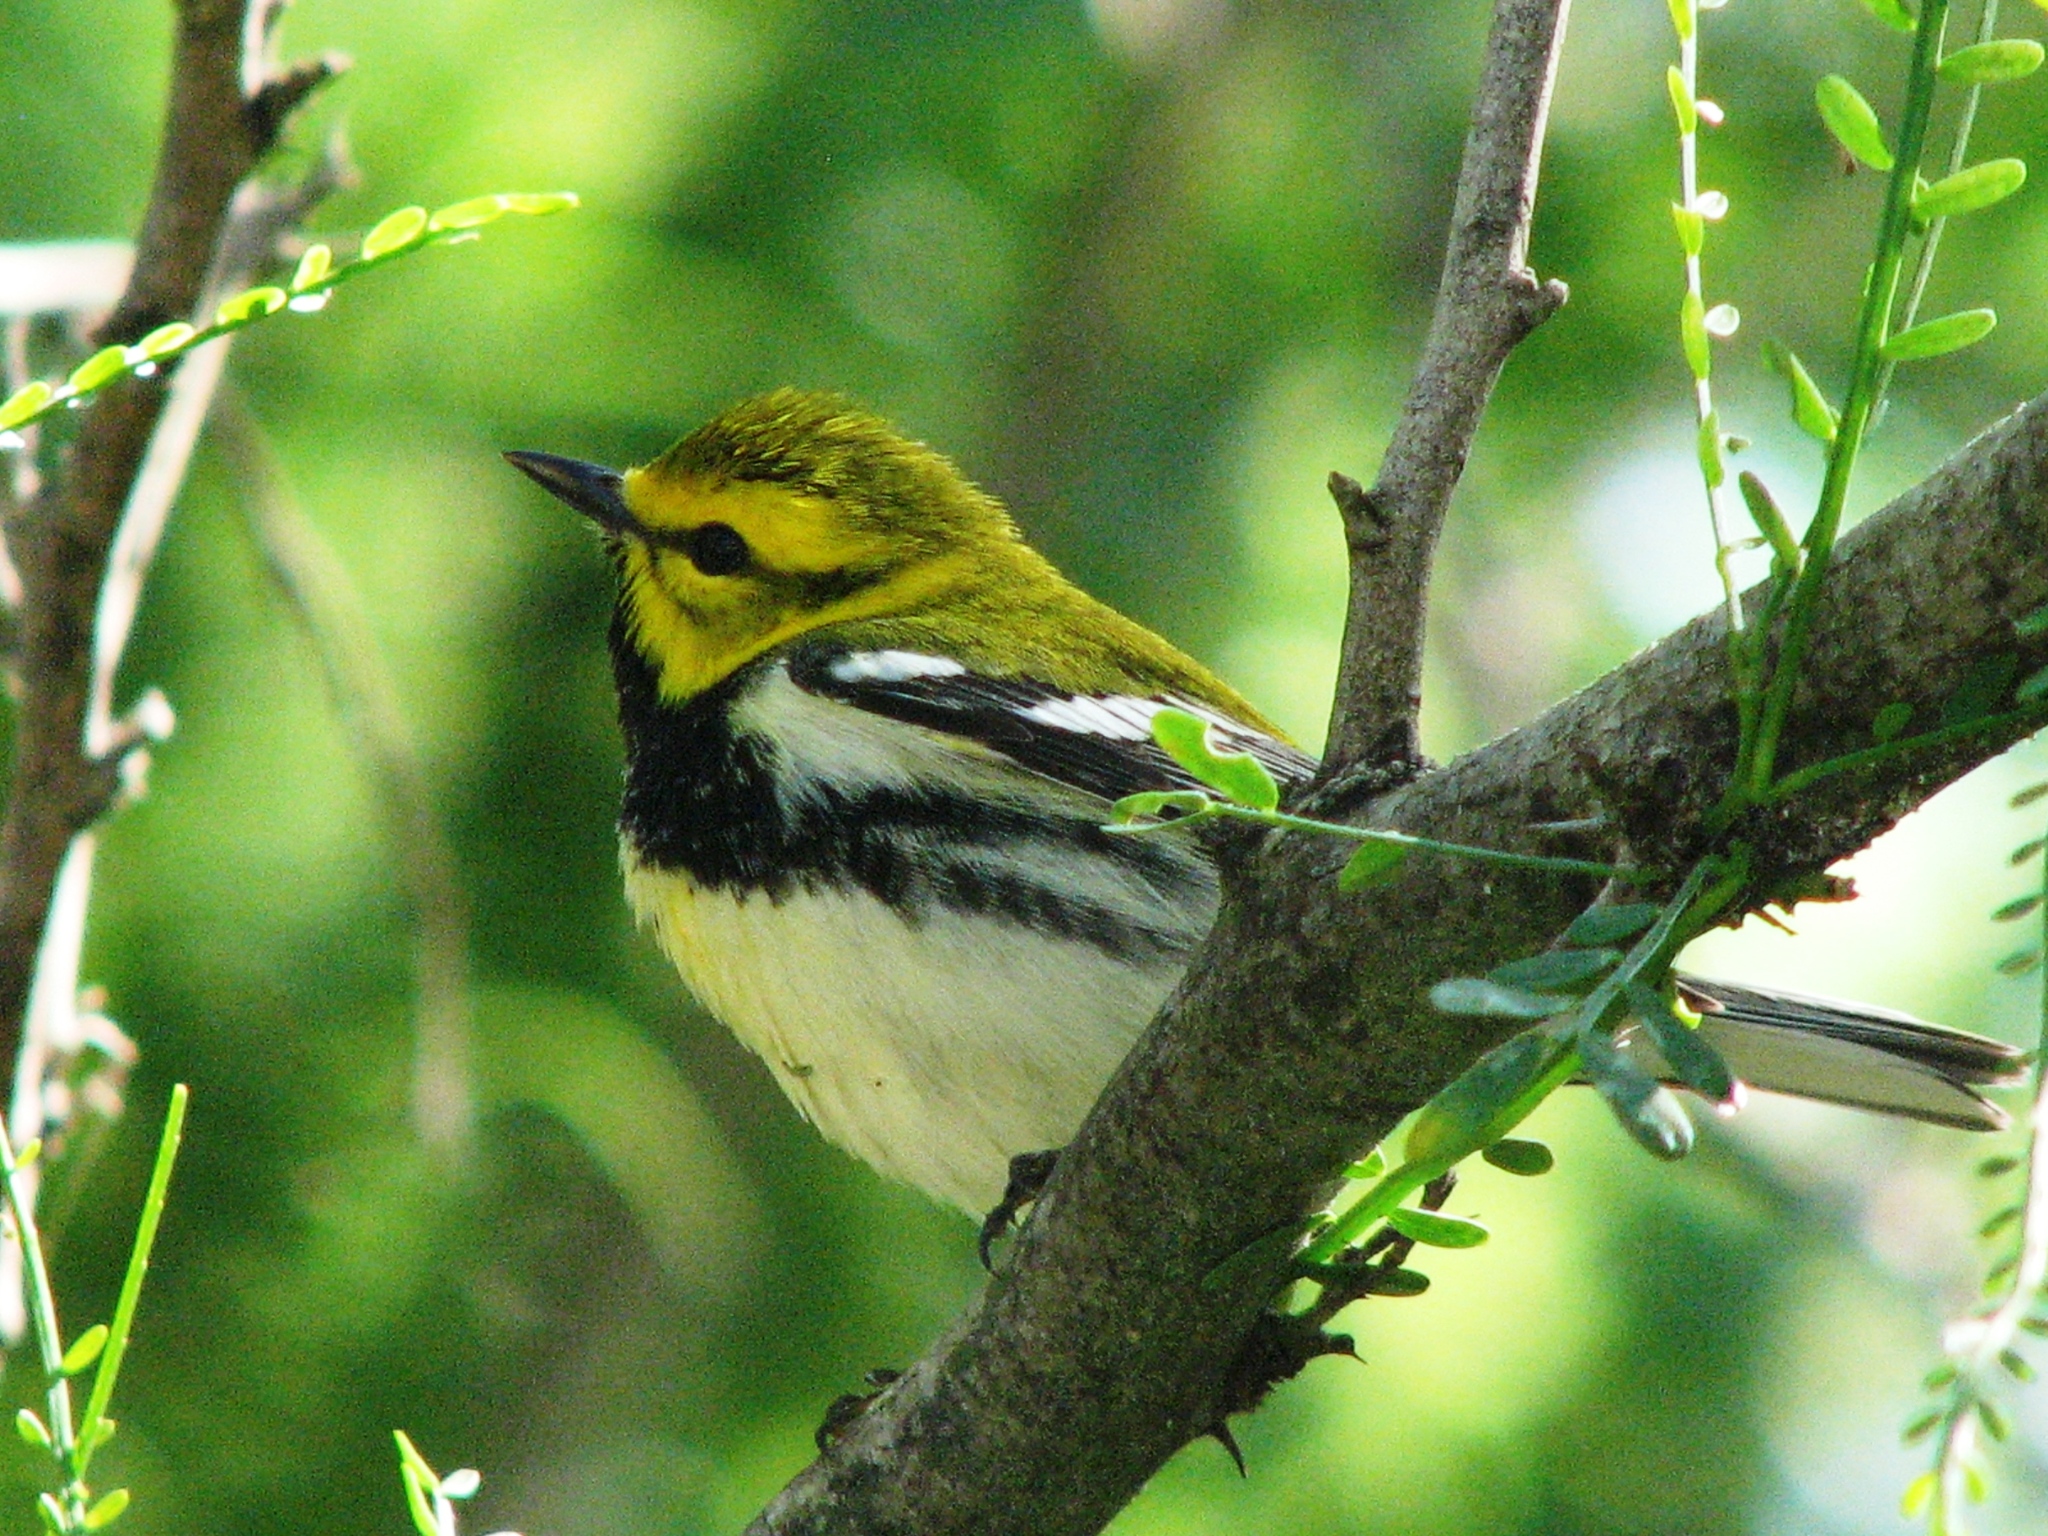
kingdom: Animalia
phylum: Chordata
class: Aves
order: Passeriformes
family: Parulidae
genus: Setophaga
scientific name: Setophaga virens
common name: Black-throated green warbler
